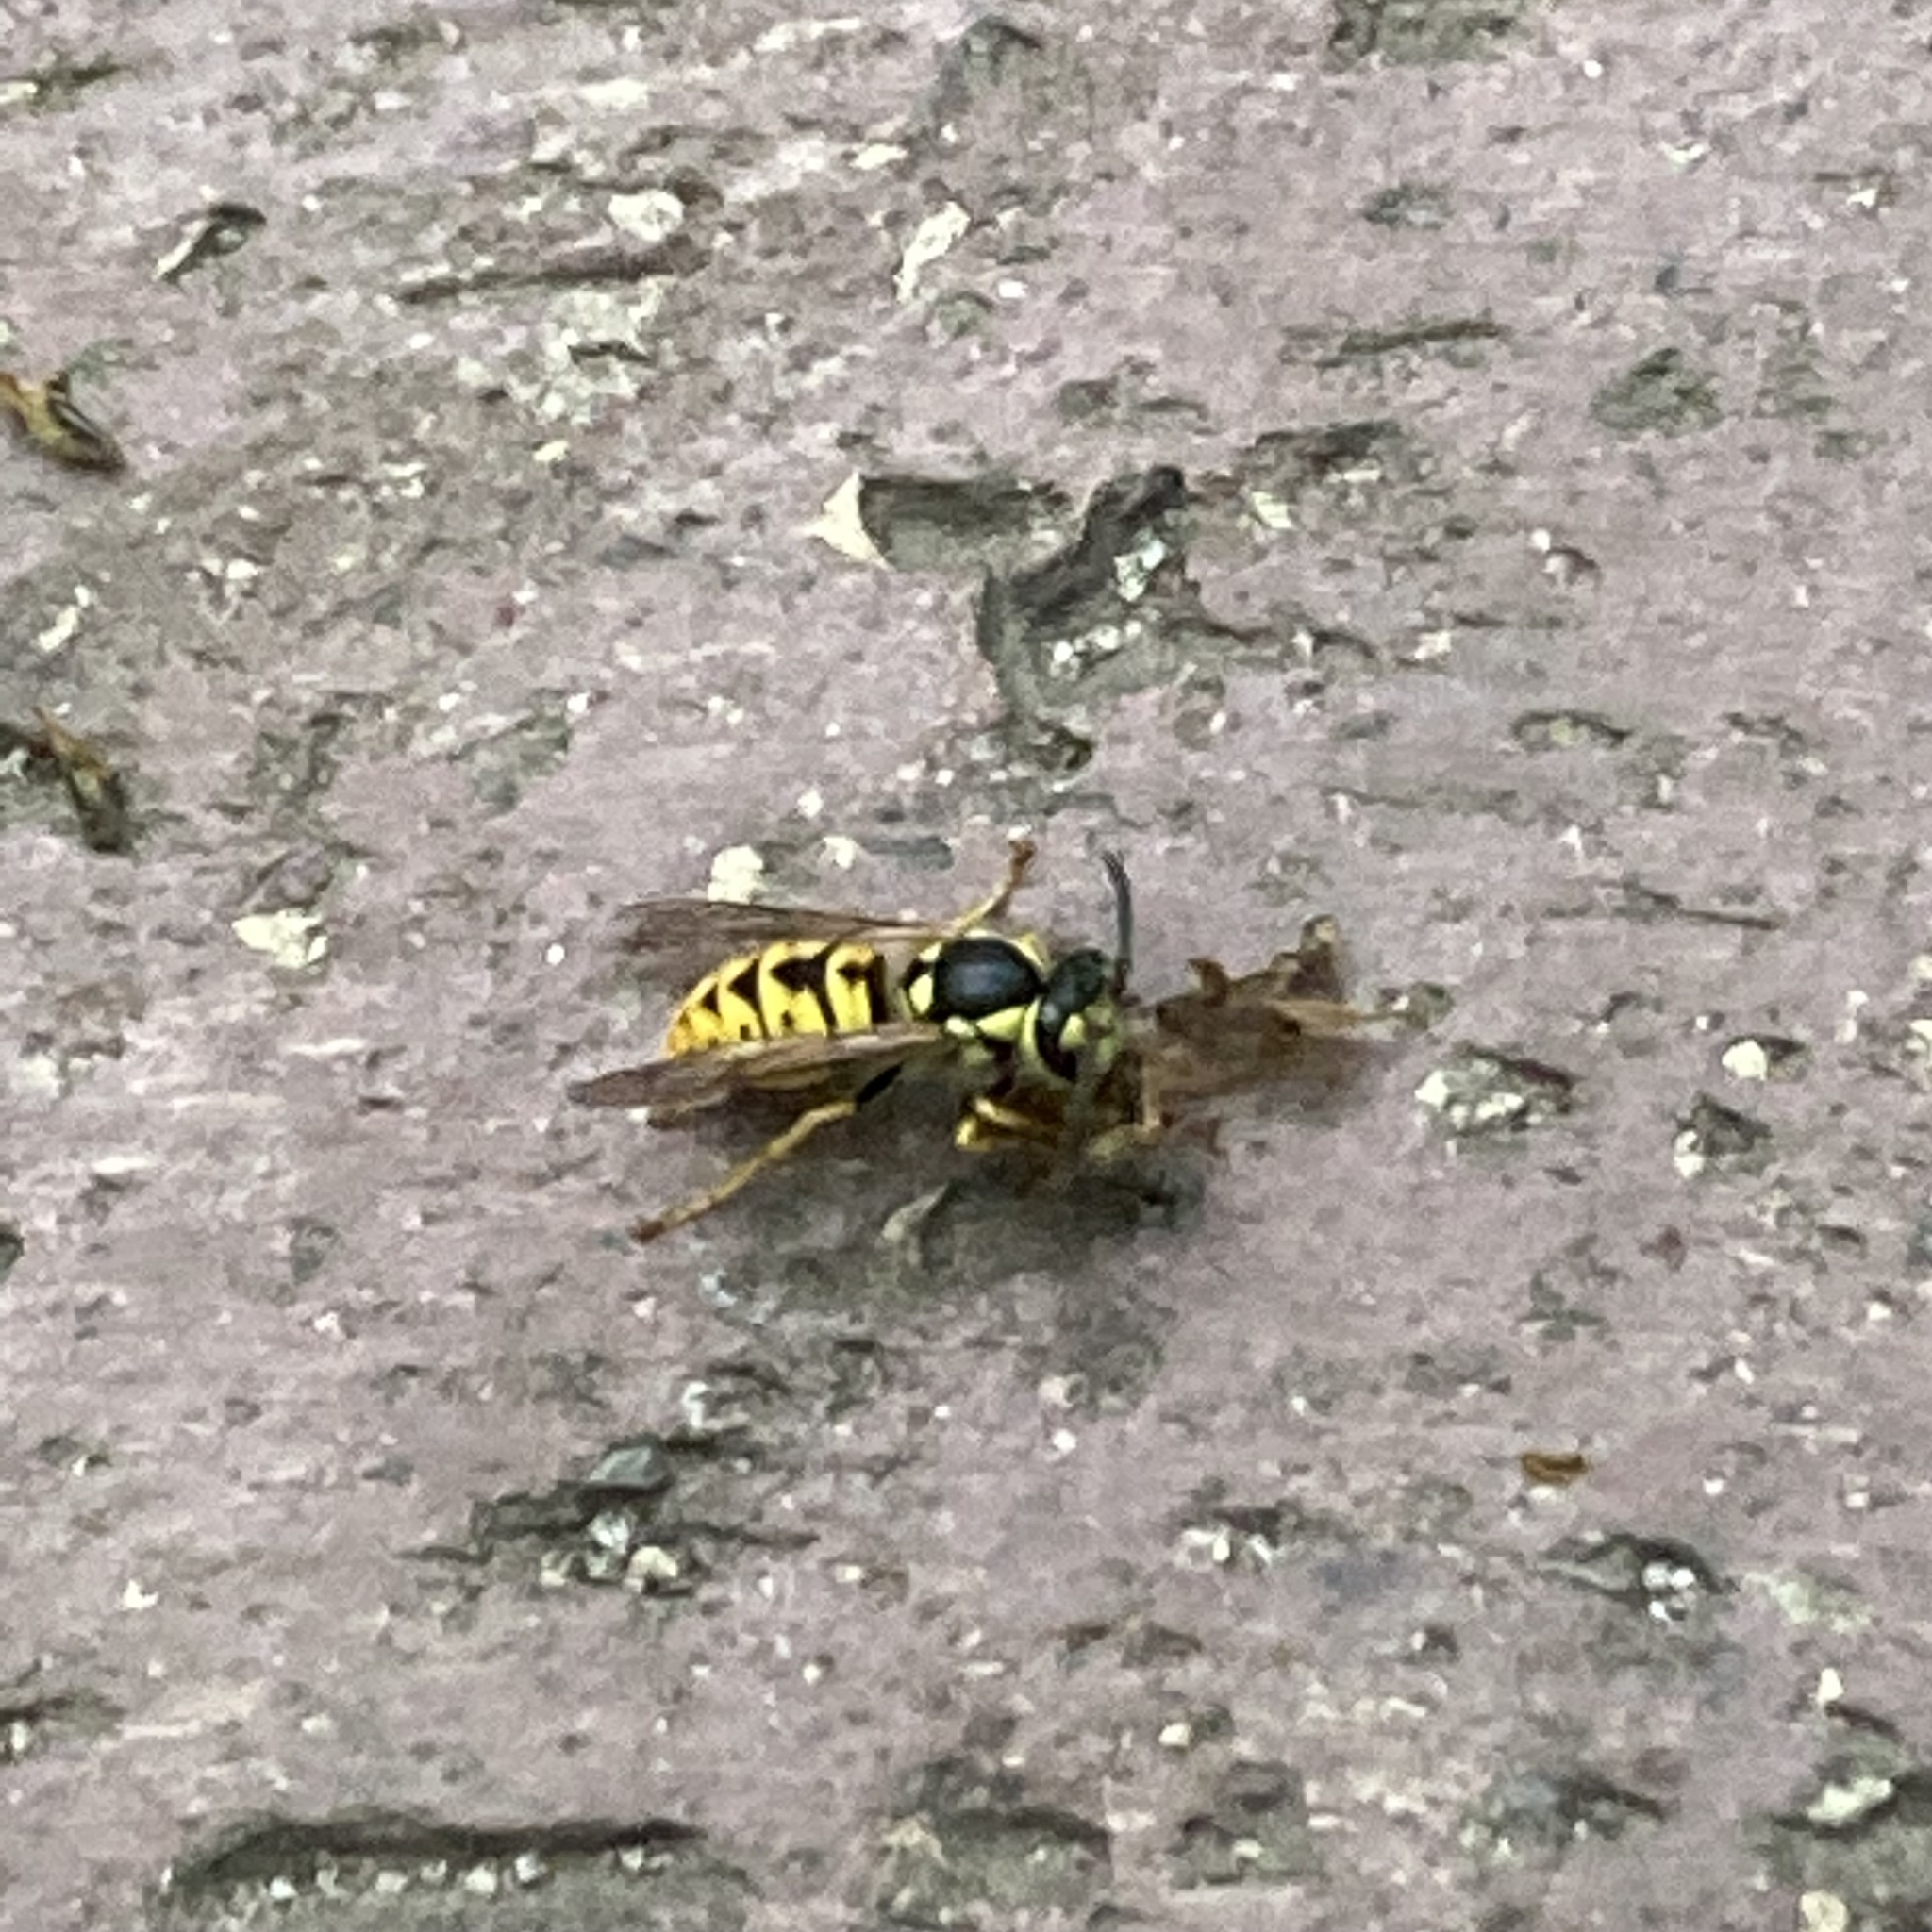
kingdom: Animalia
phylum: Arthropoda
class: Insecta
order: Hymenoptera
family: Vespidae
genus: Vespula
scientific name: Vespula germanica
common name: German wasp
